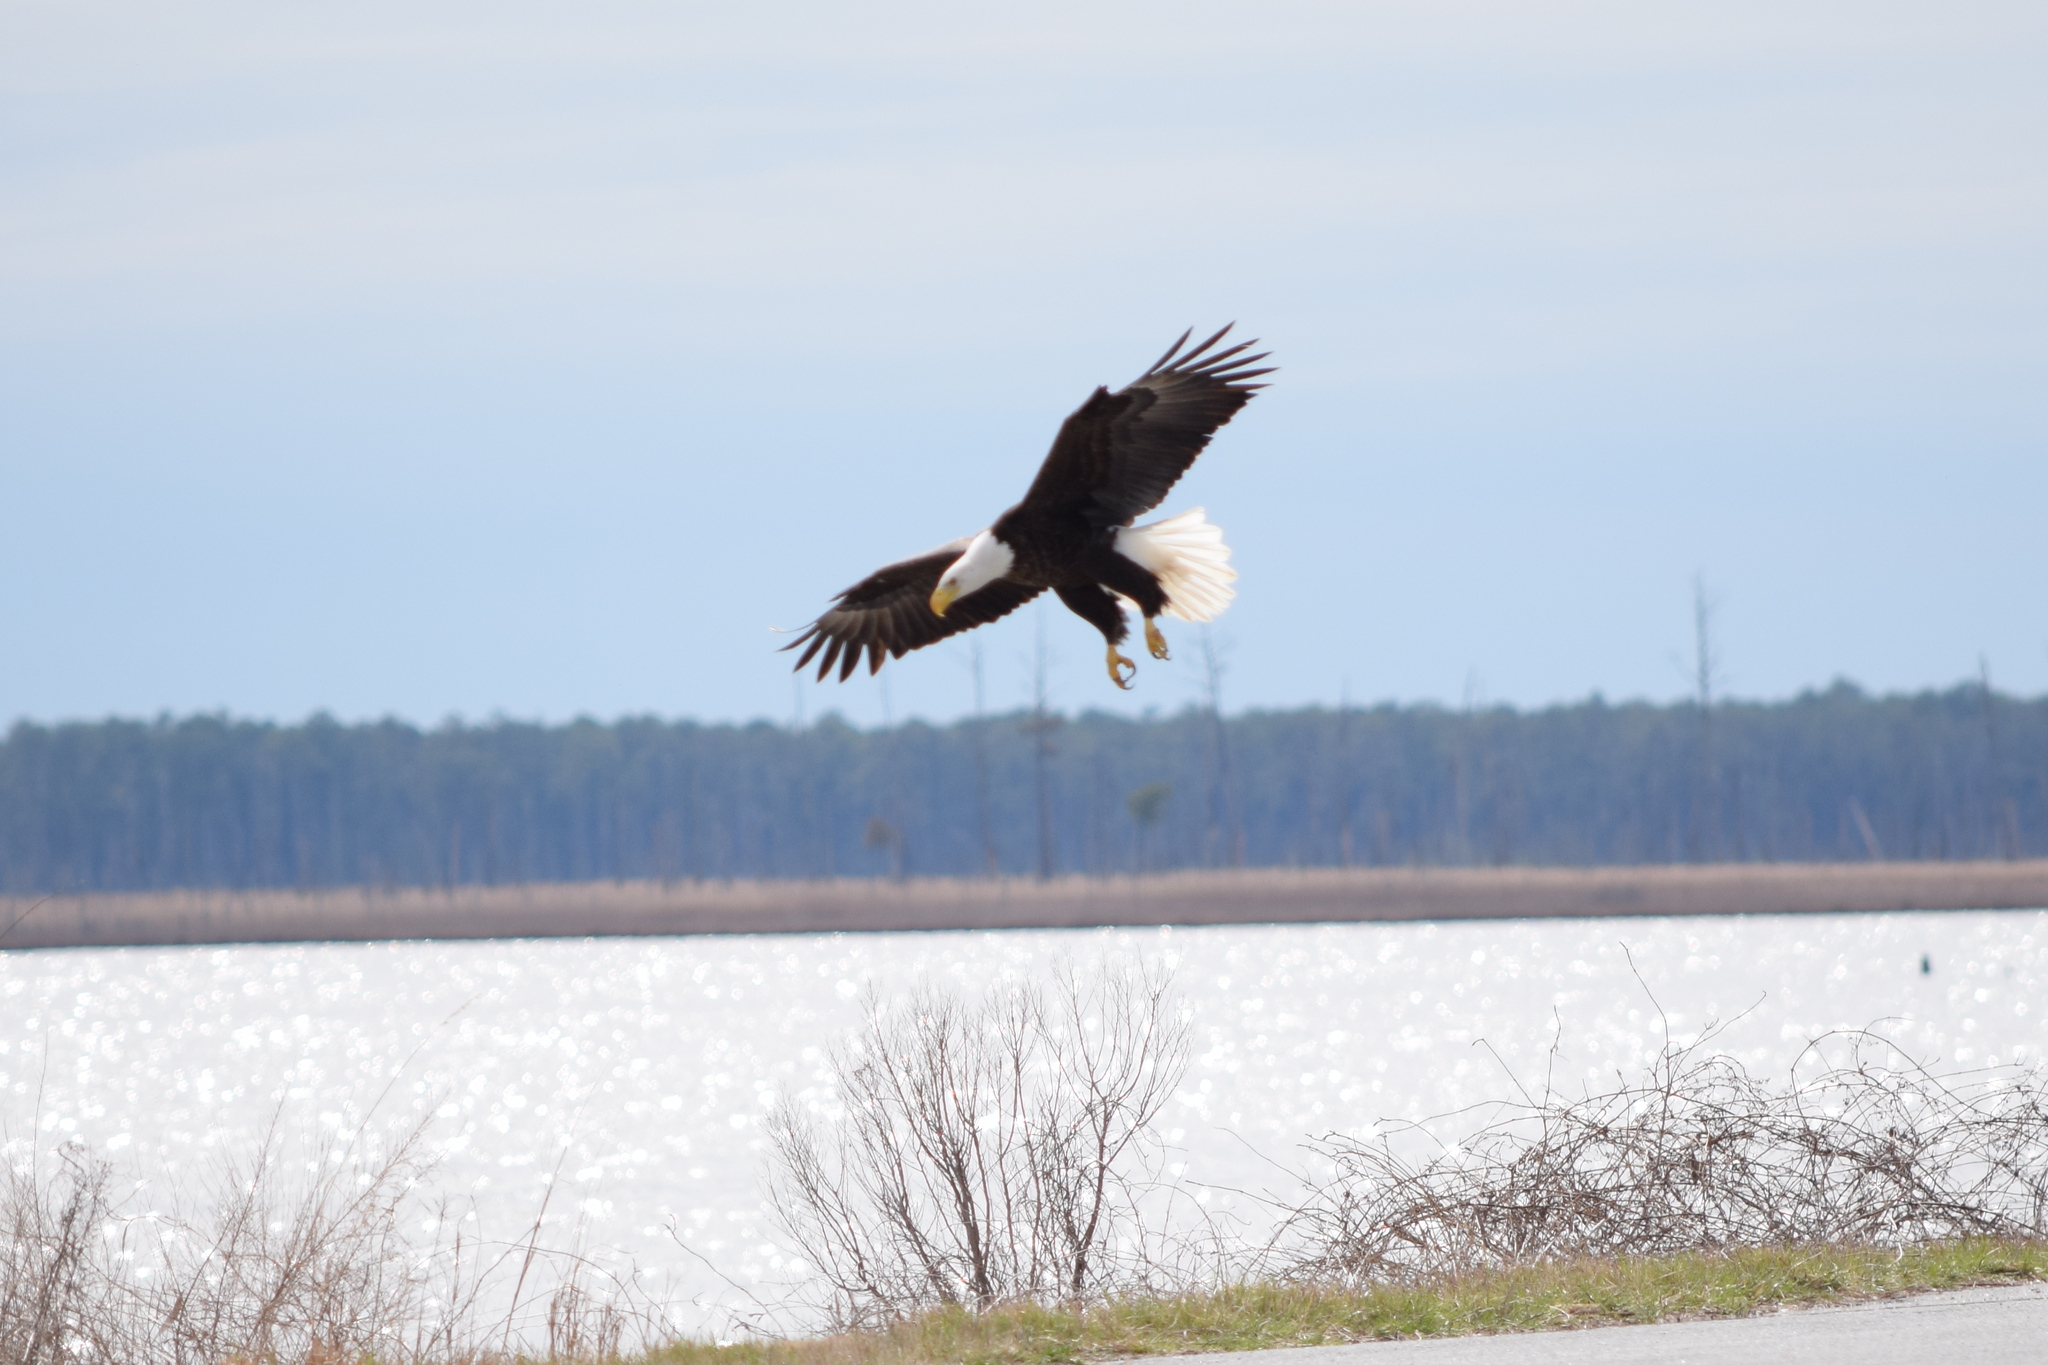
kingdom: Animalia
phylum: Chordata
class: Aves
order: Accipitriformes
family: Accipitridae
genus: Haliaeetus
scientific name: Haliaeetus leucocephalus
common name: Bald eagle
